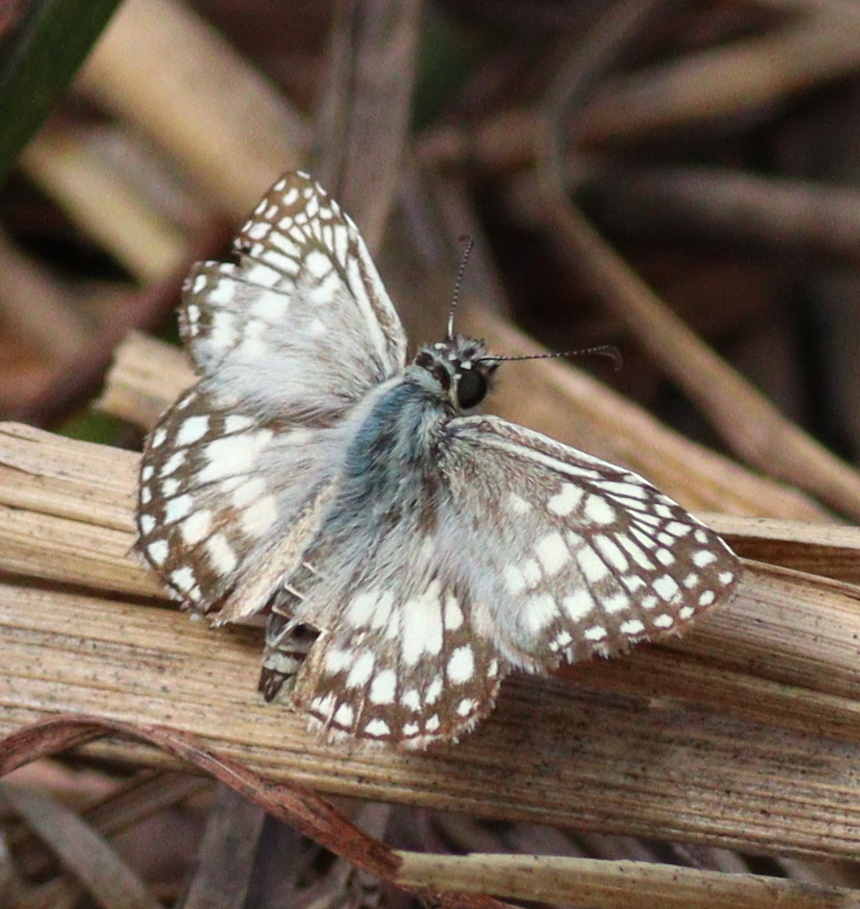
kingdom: Animalia
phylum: Arthropoda
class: Insecta
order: Lepidoptera
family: Hesperiidae
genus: Pyrgus
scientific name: Pyrgus oileus
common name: Tropical checkered-skipper
